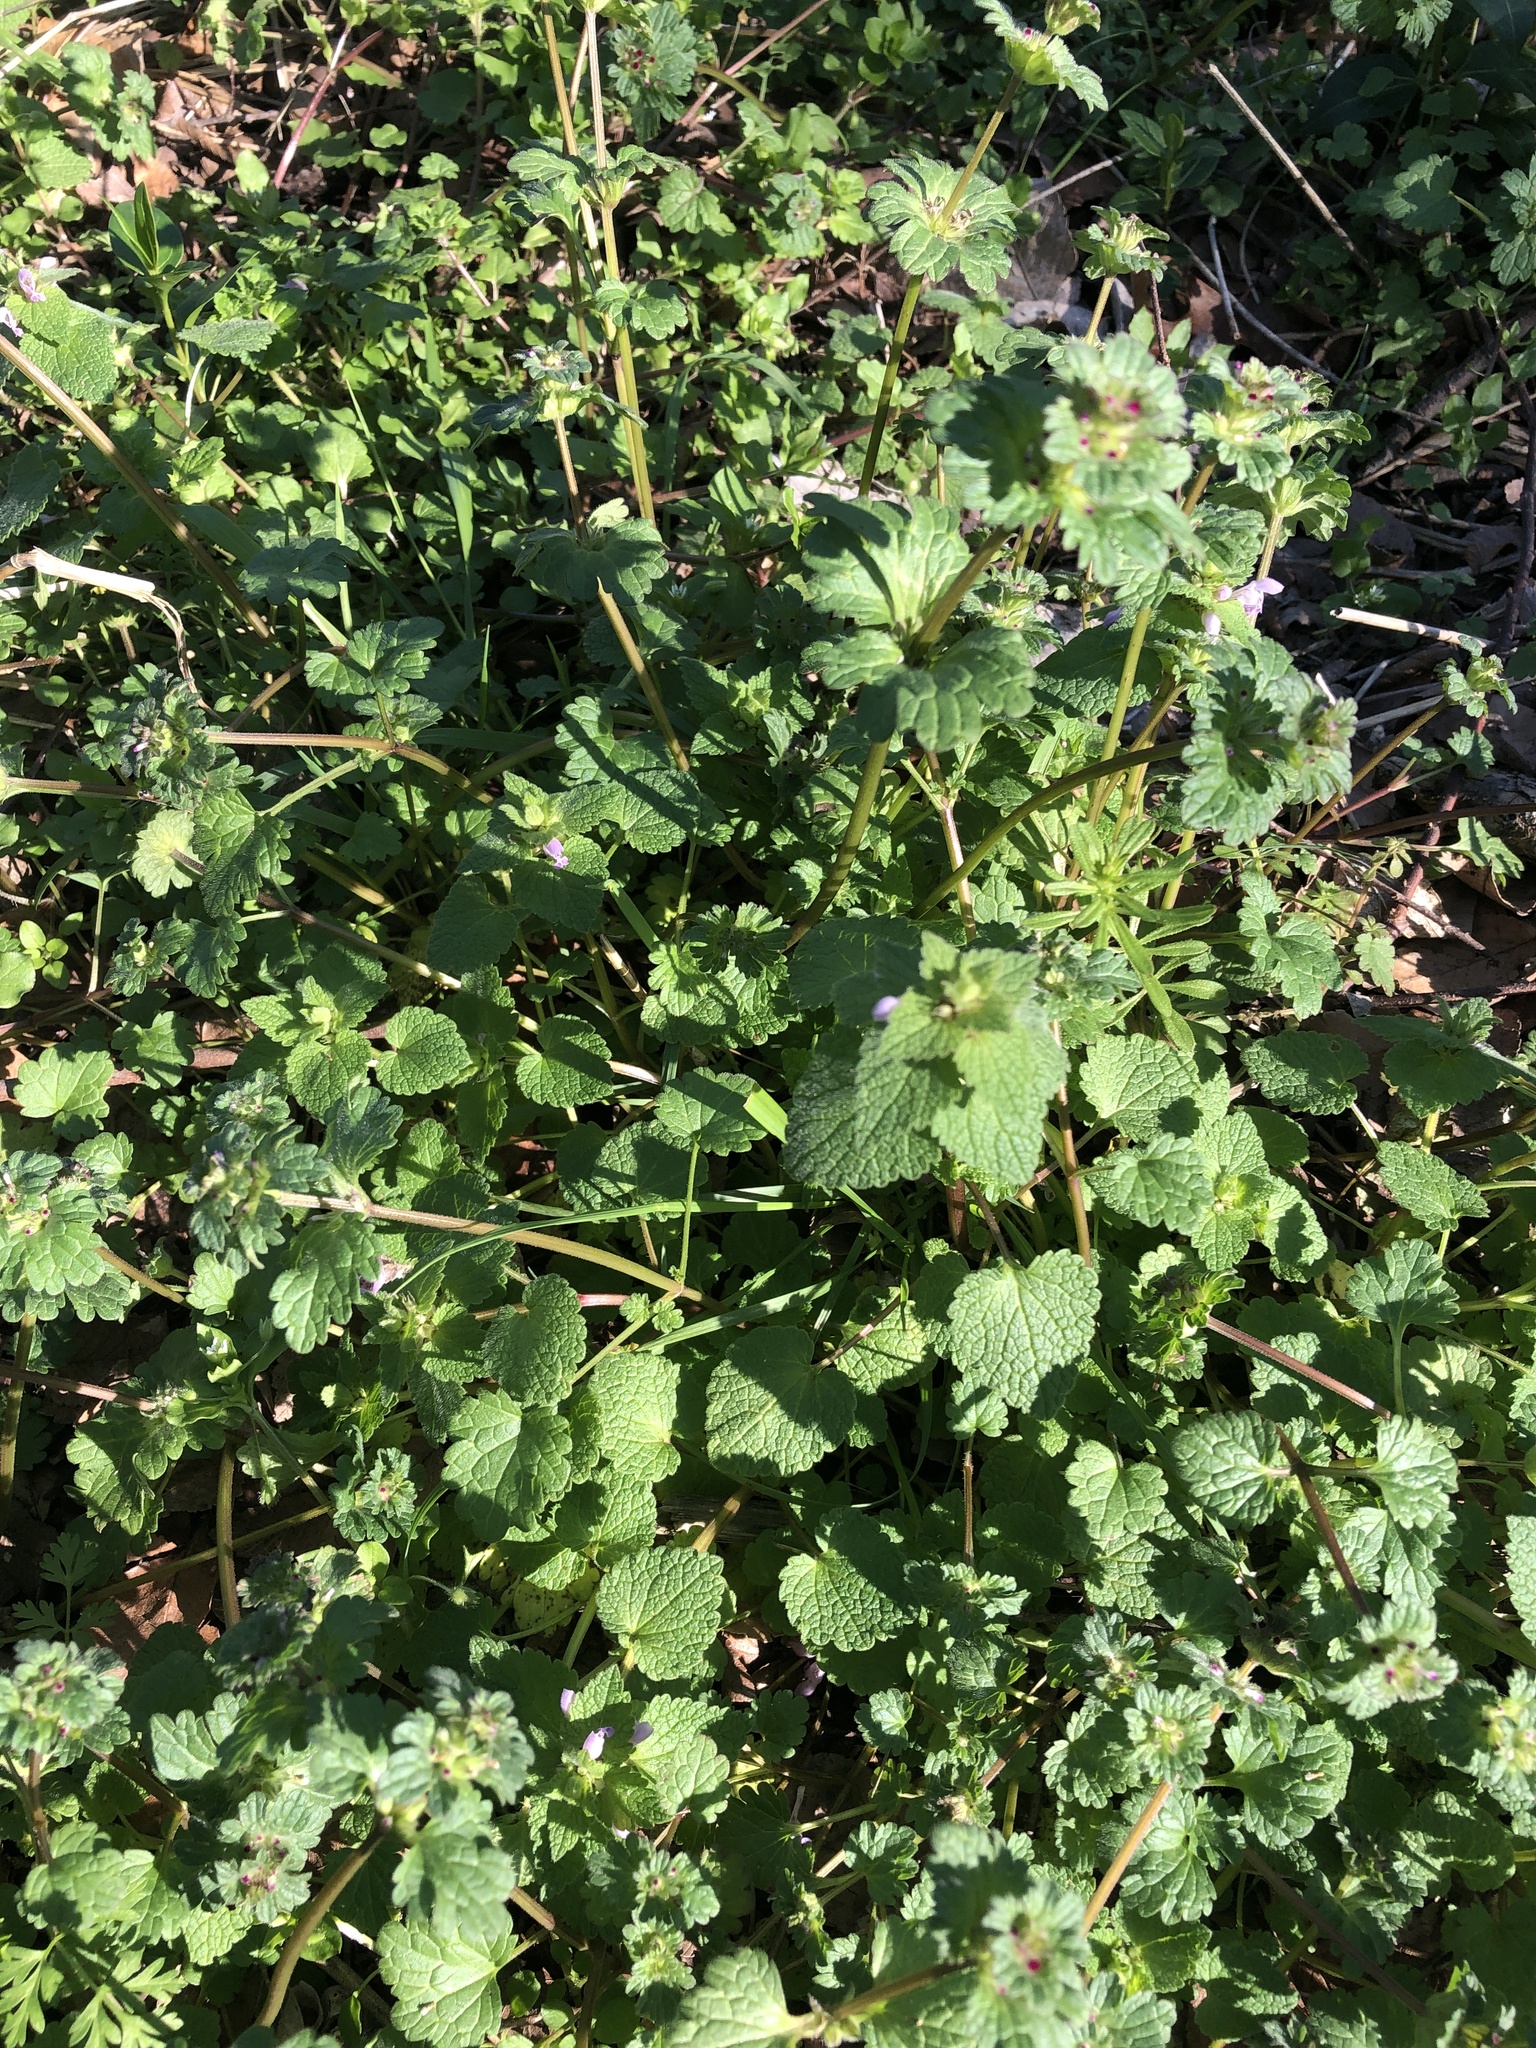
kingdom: Plantae
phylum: Tracheophyta
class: Magnoliopsida
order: Lamiales
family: Lamiaceae
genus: Lamium
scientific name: Lamium purpureum
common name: Red dead-nettle
